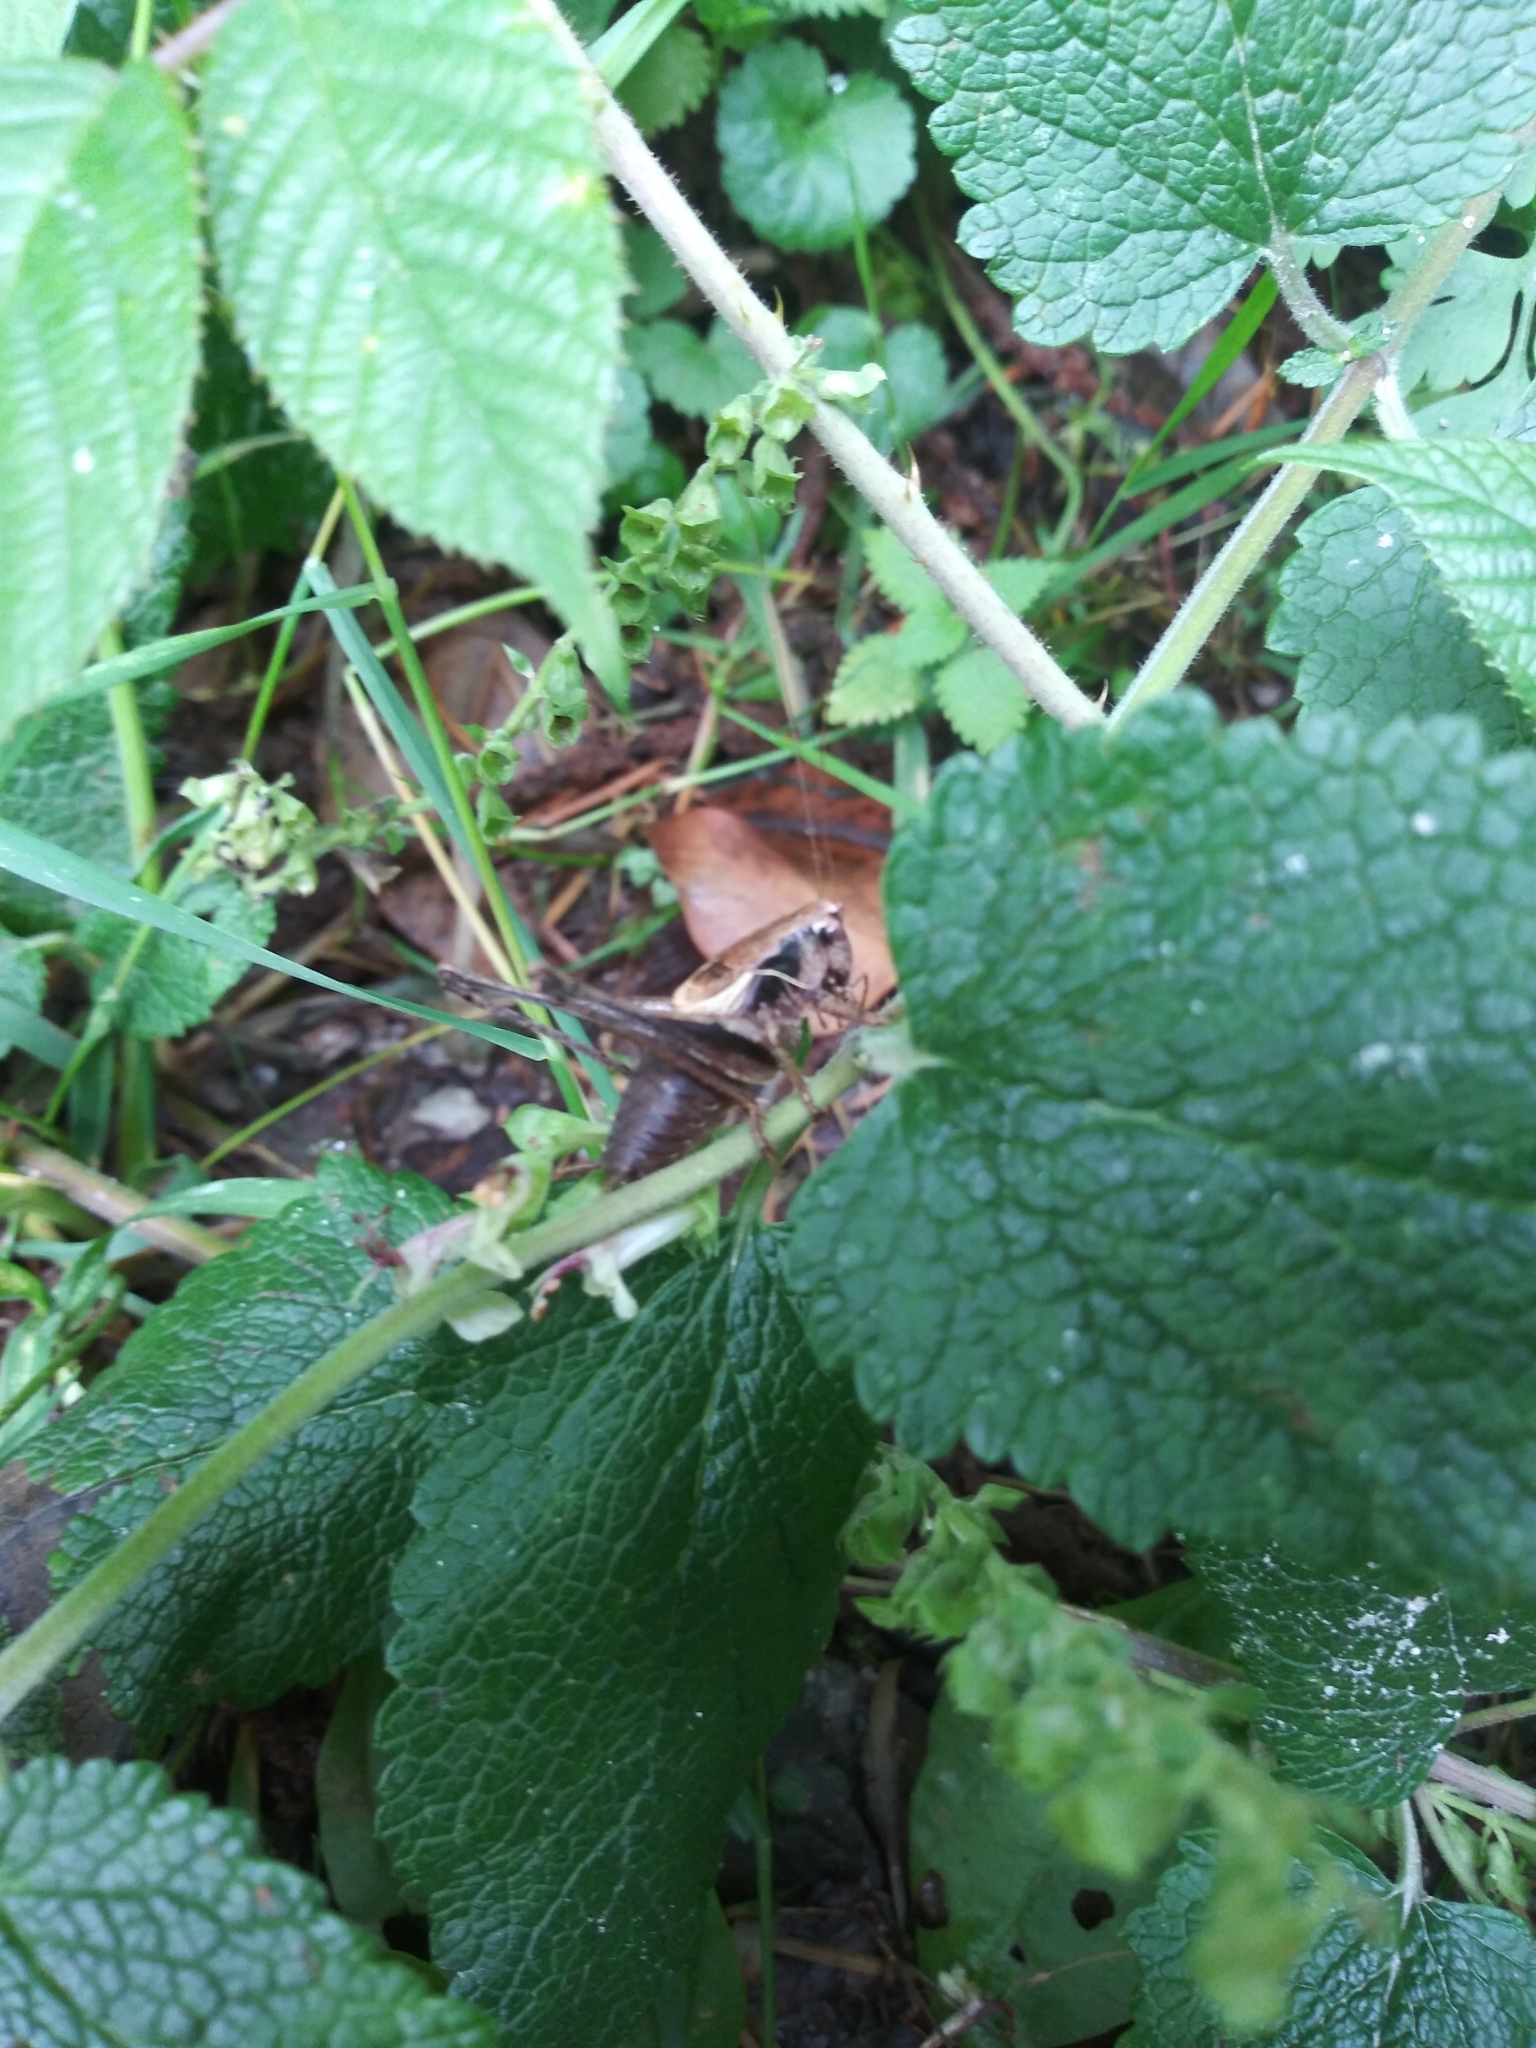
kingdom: Animalia
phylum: Arthropoda
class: Insecta
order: Orthoptera
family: Tettigoniidae
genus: Pholidoptera
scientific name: Pholidoptera griseoaptera
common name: Dark bush-cricket
